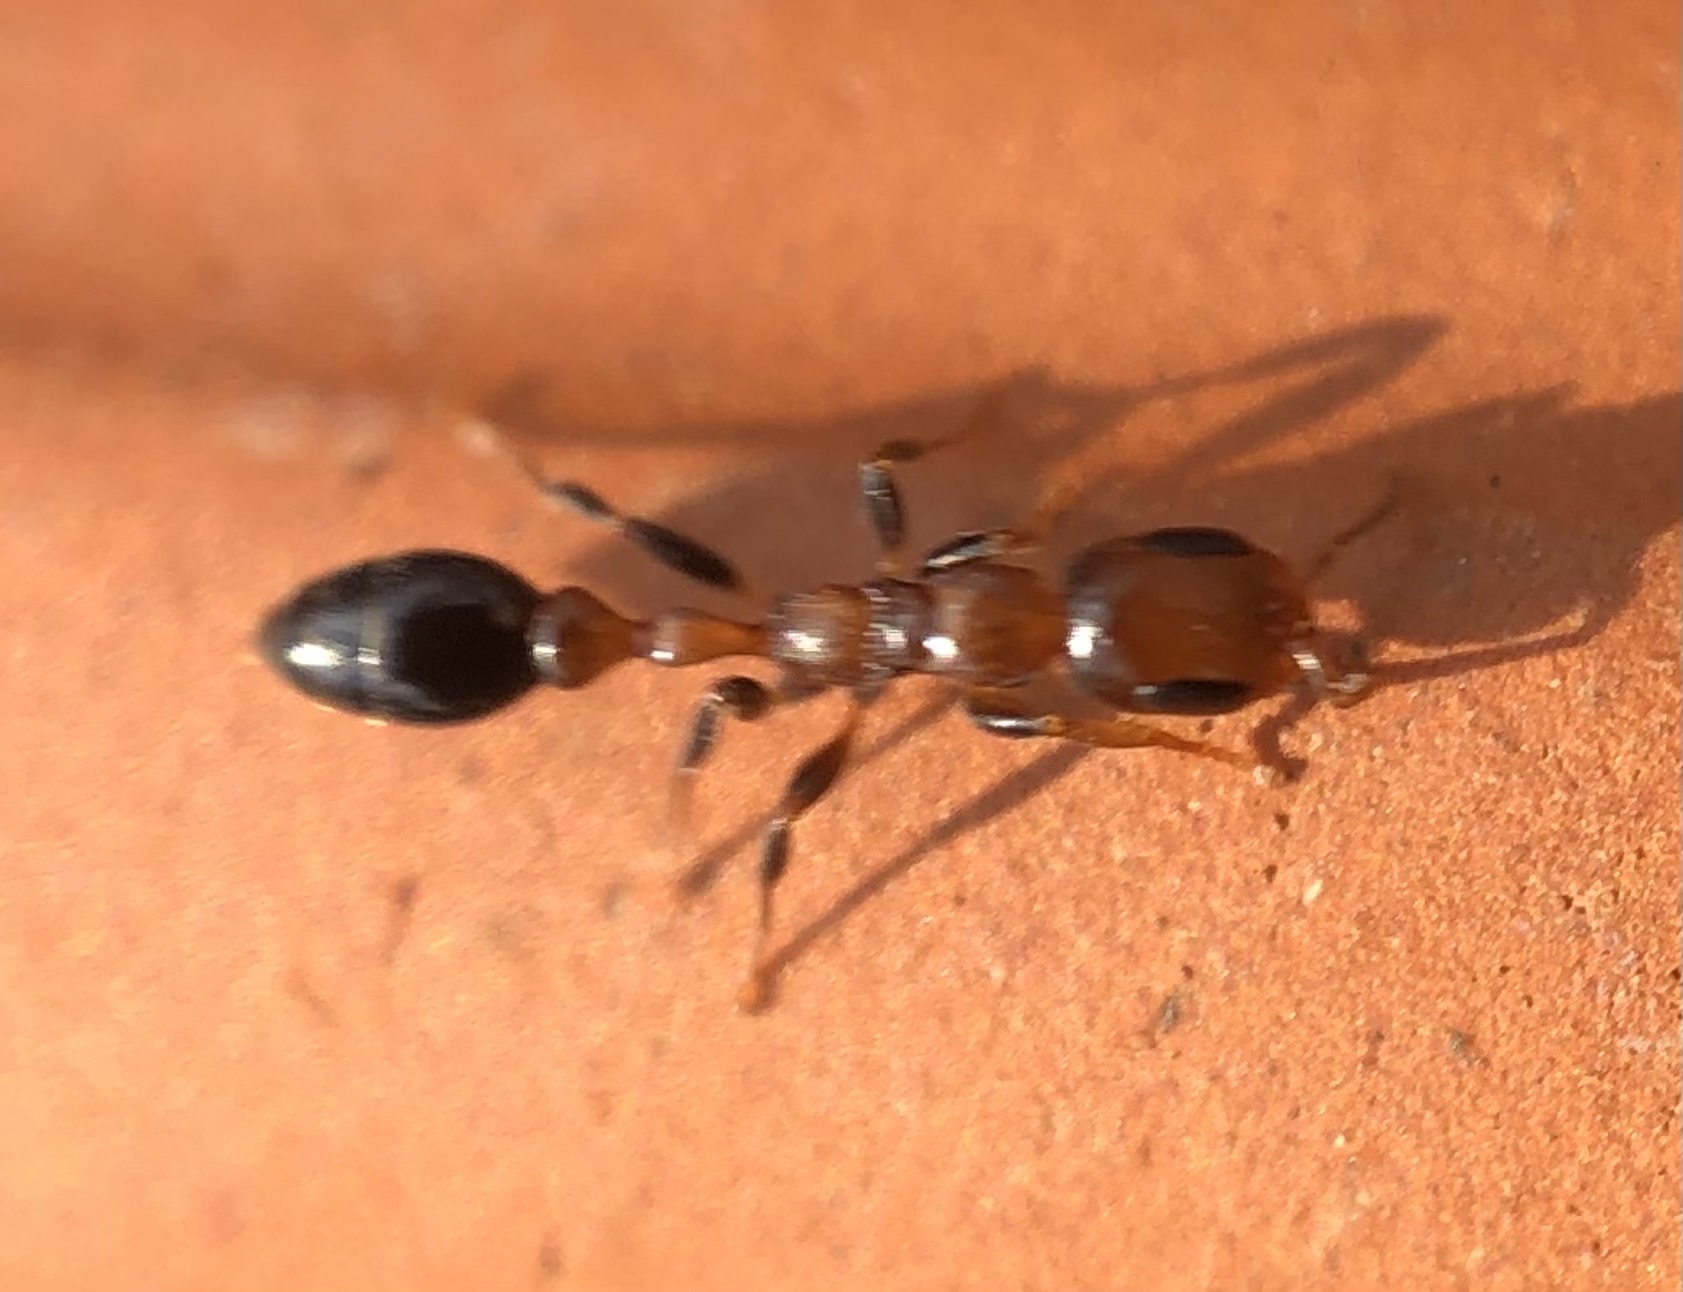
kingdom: Animalia
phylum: Arthropoda
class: Insecta
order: Hymenoptera
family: Formicidae
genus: Pseudomyrmex
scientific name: Pseudomyrmex ejectus
